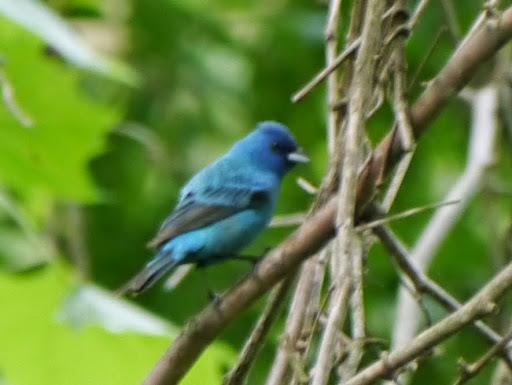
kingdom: Animalia
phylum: Chordata
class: Aves
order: Passeriformes
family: Cardinalidae
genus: Passerina
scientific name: Passerina cyanea
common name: Indigo bunting
